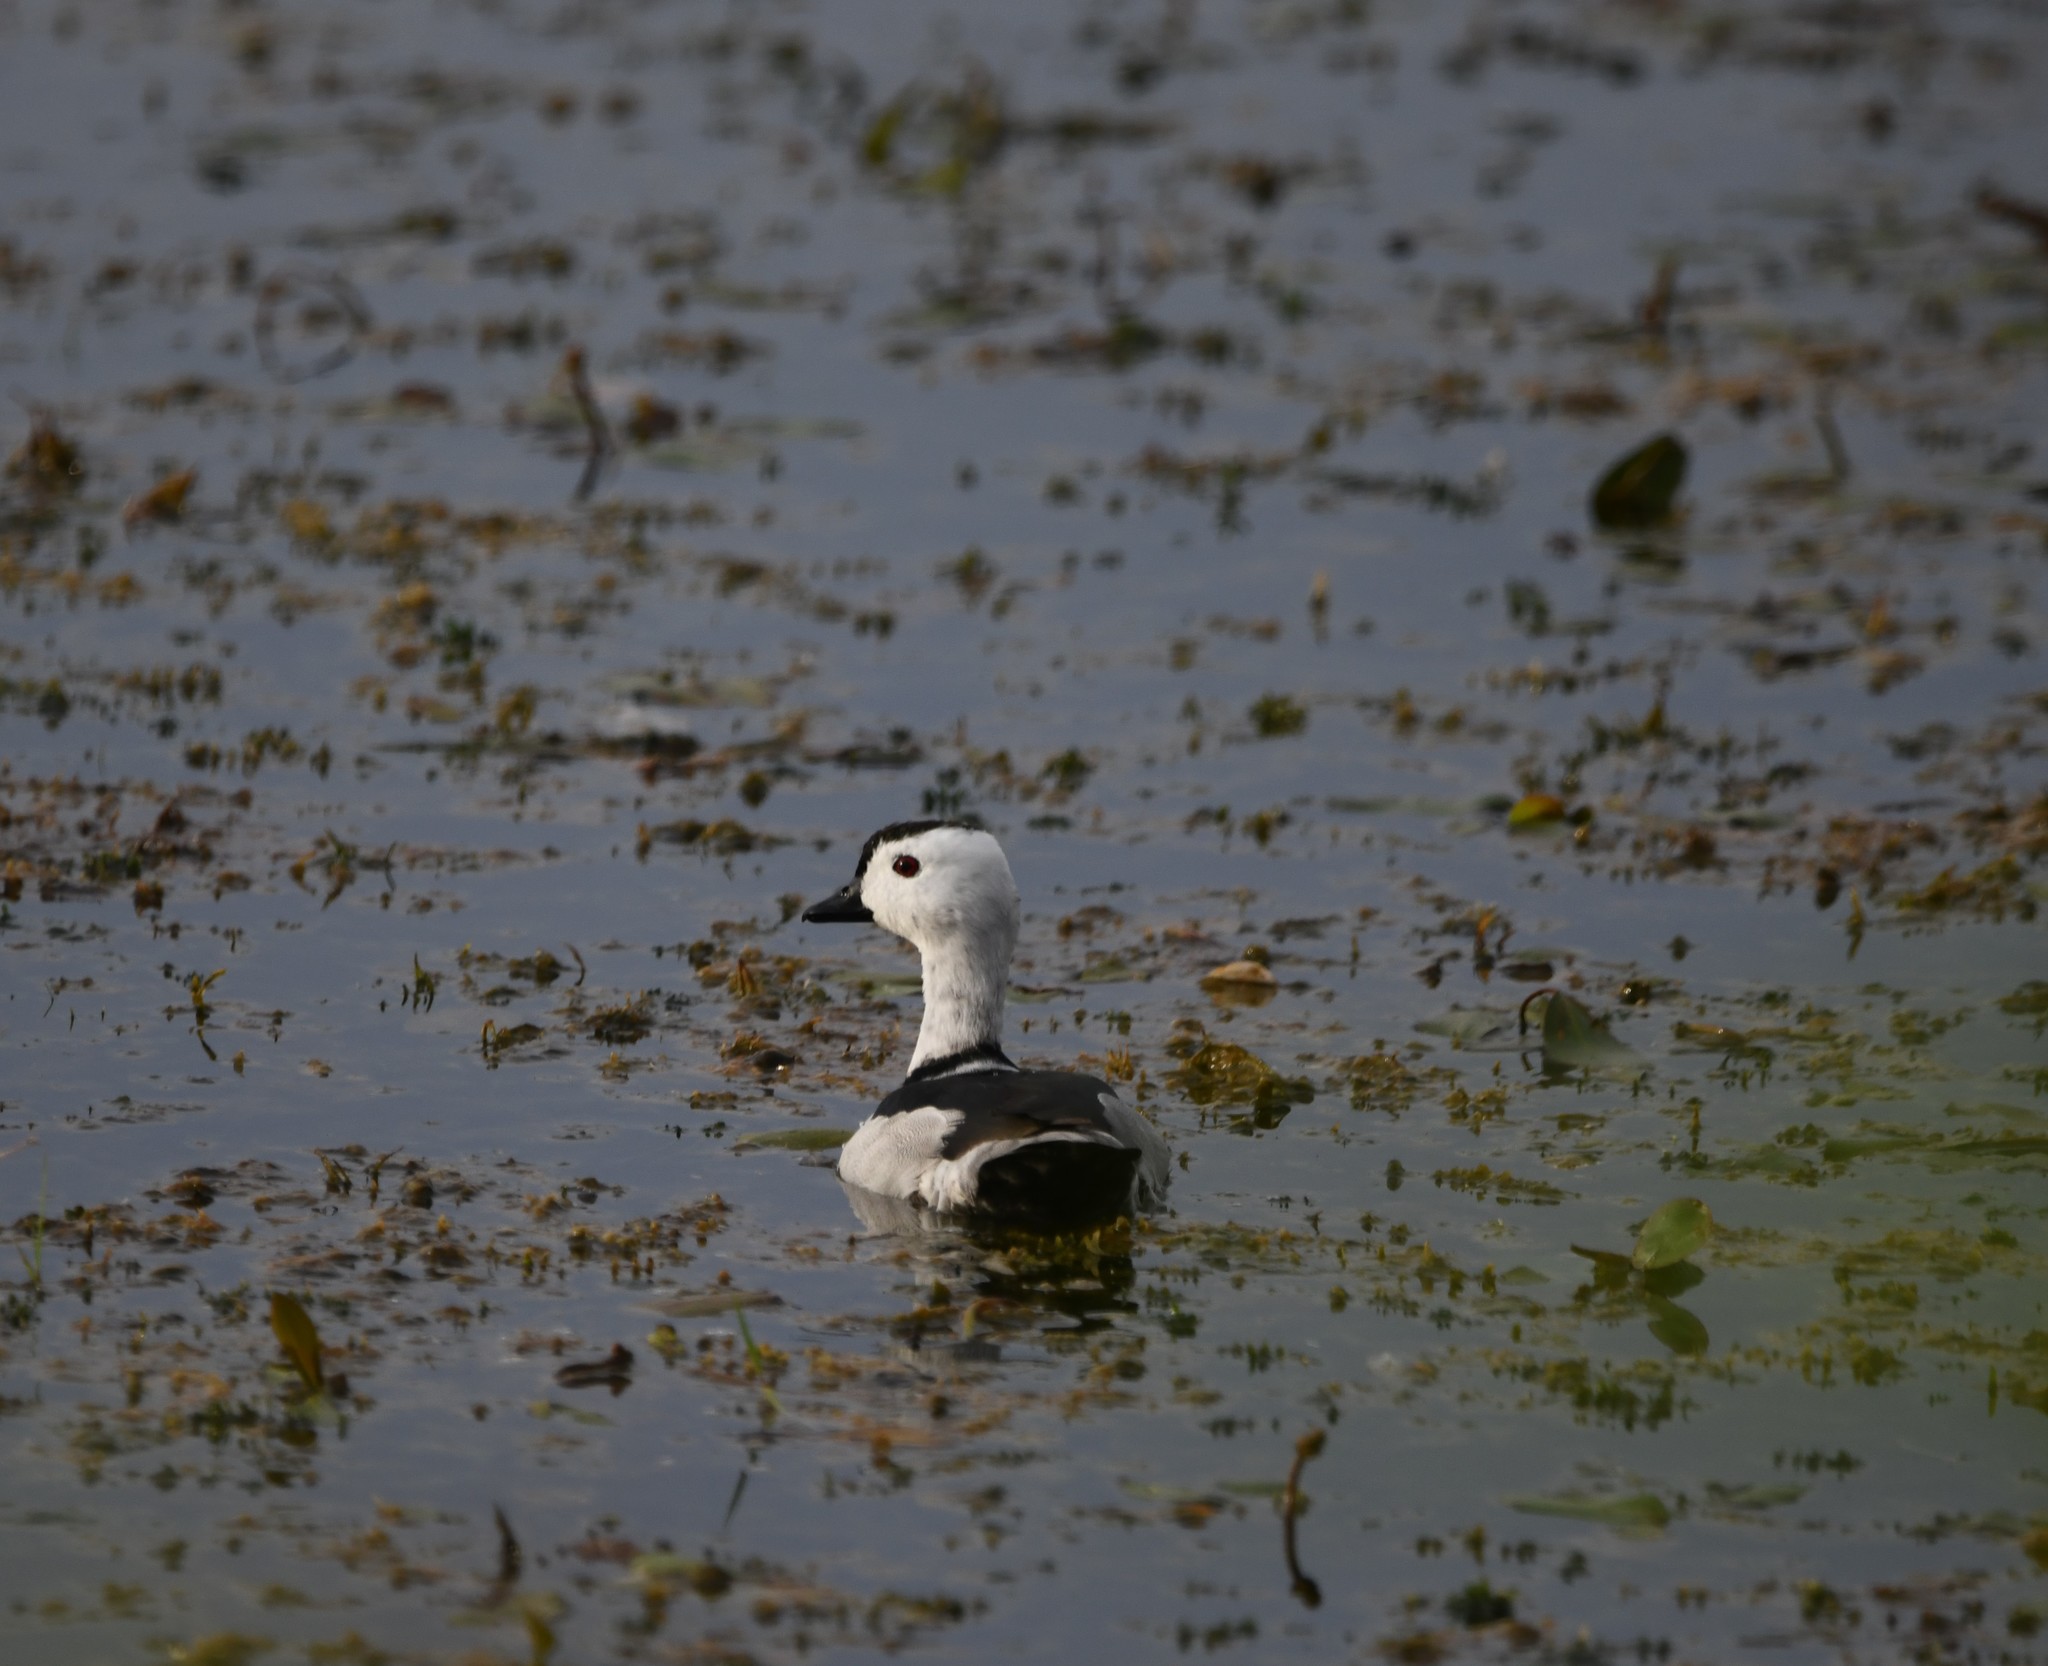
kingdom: Animalia
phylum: Chordata
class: Aves
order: Anseriformes
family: Anatidae
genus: Nettapus
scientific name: Nettapus coromandelianus
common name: Cotton pygmy-goose
